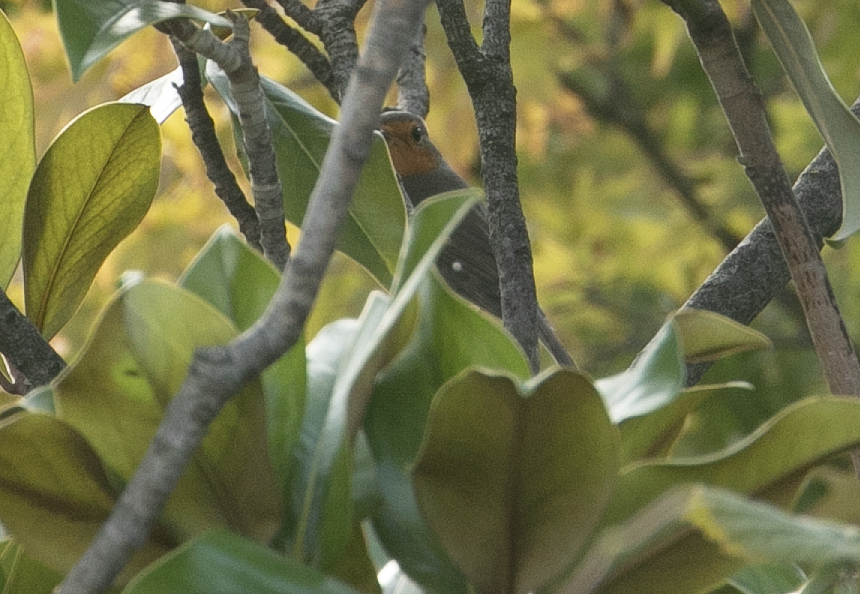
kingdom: Animalia
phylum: Chordata
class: Aves
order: Passeriformes
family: Muscicapidae
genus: Erithacus
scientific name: Erithacus rubecula
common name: European robin
